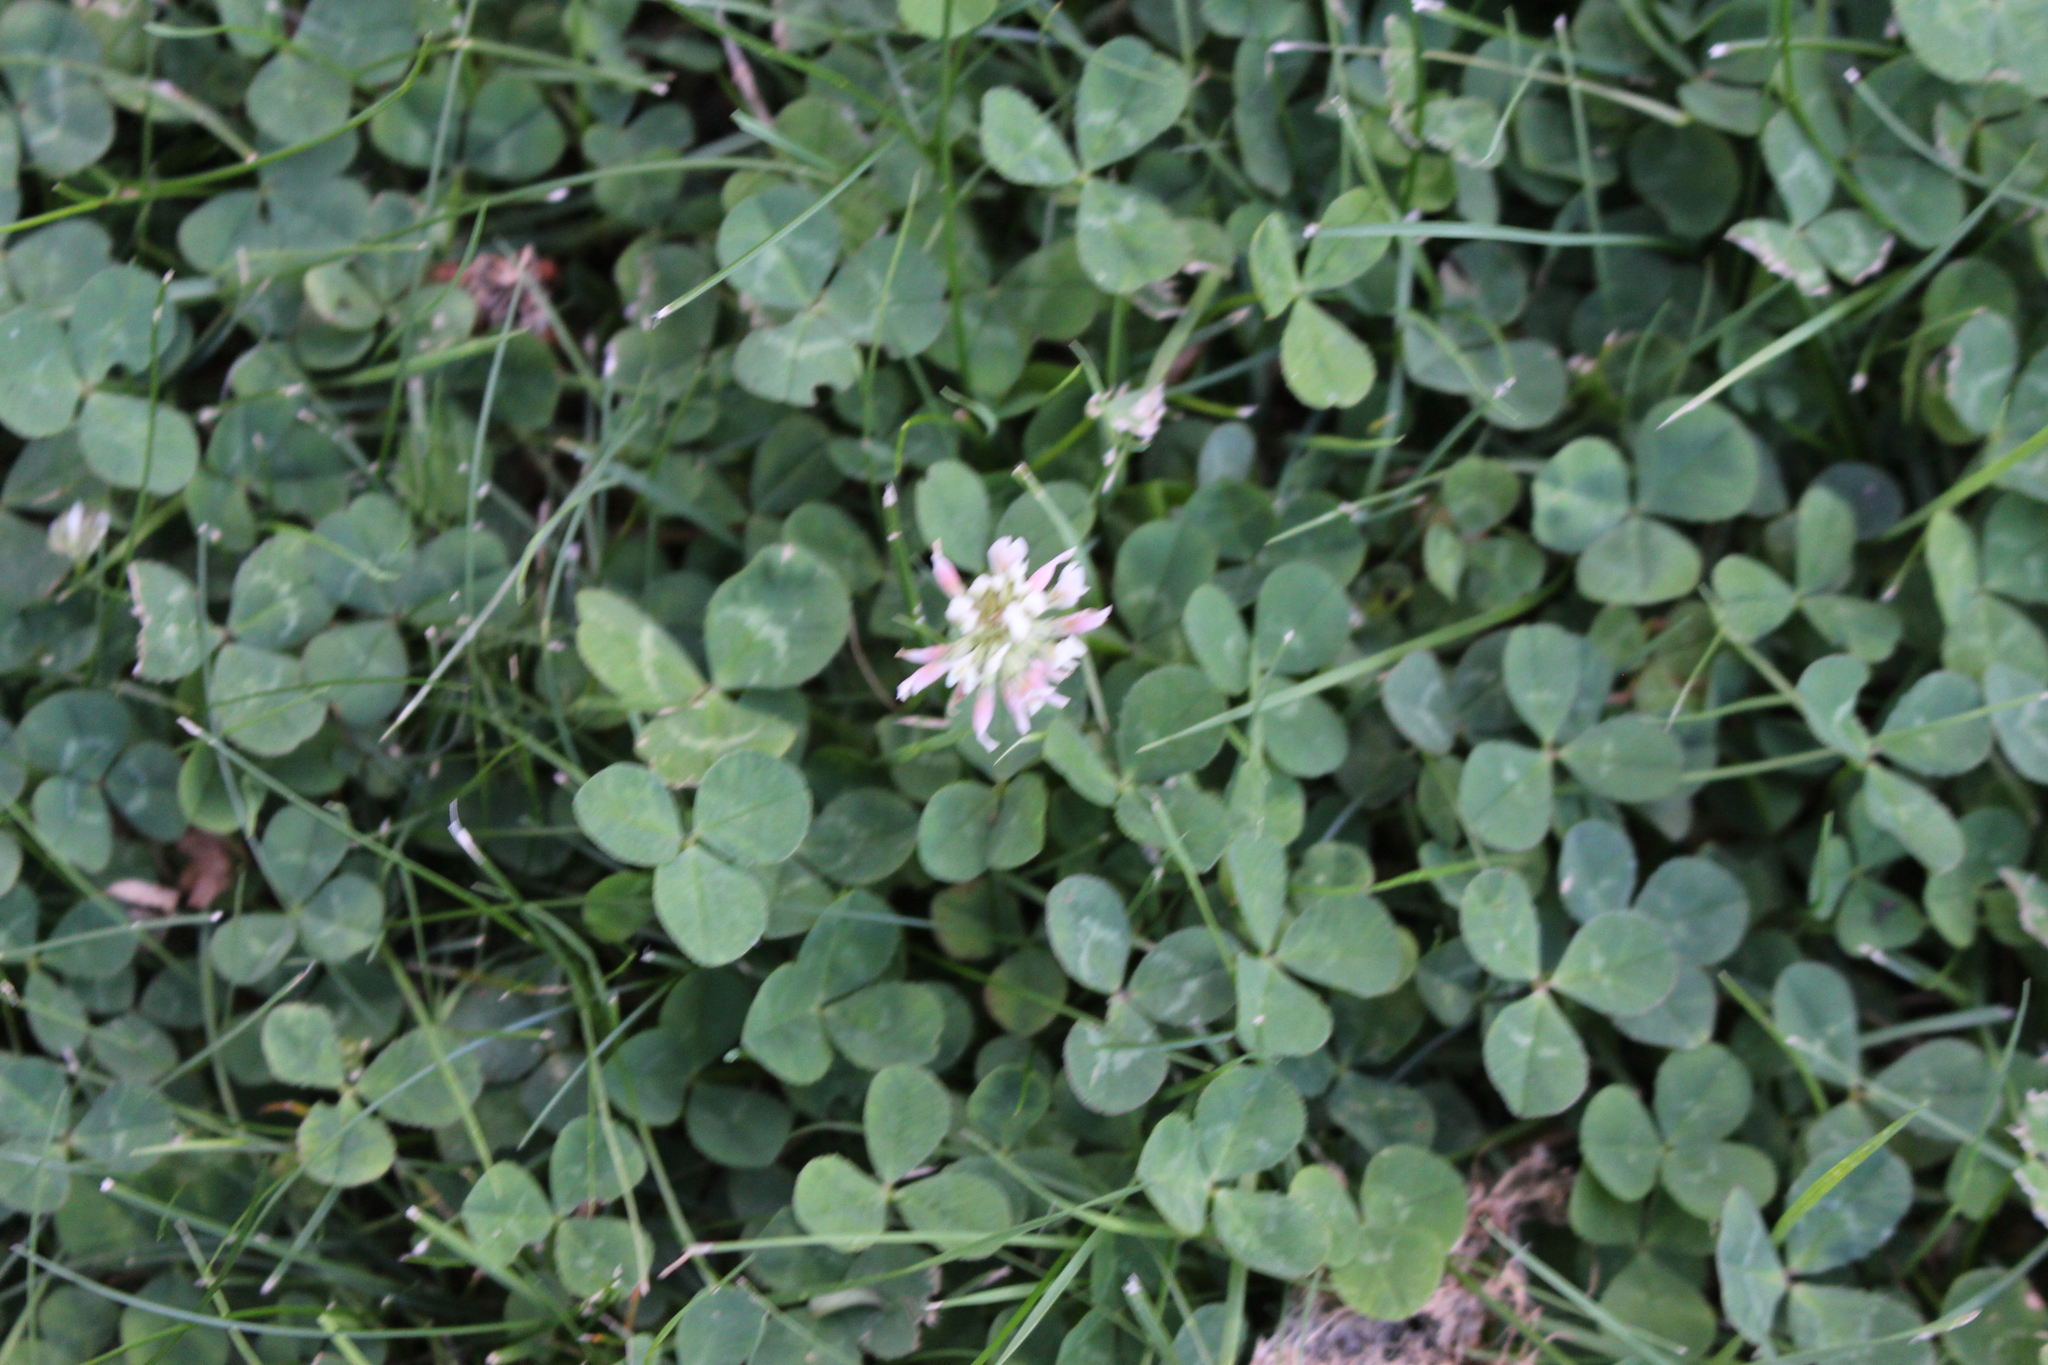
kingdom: Plantae
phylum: Tracheophyta
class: Magnoliopsida
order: Fabales
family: Fabaceae
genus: Trifolium
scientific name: Trifolium repens
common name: White clover
